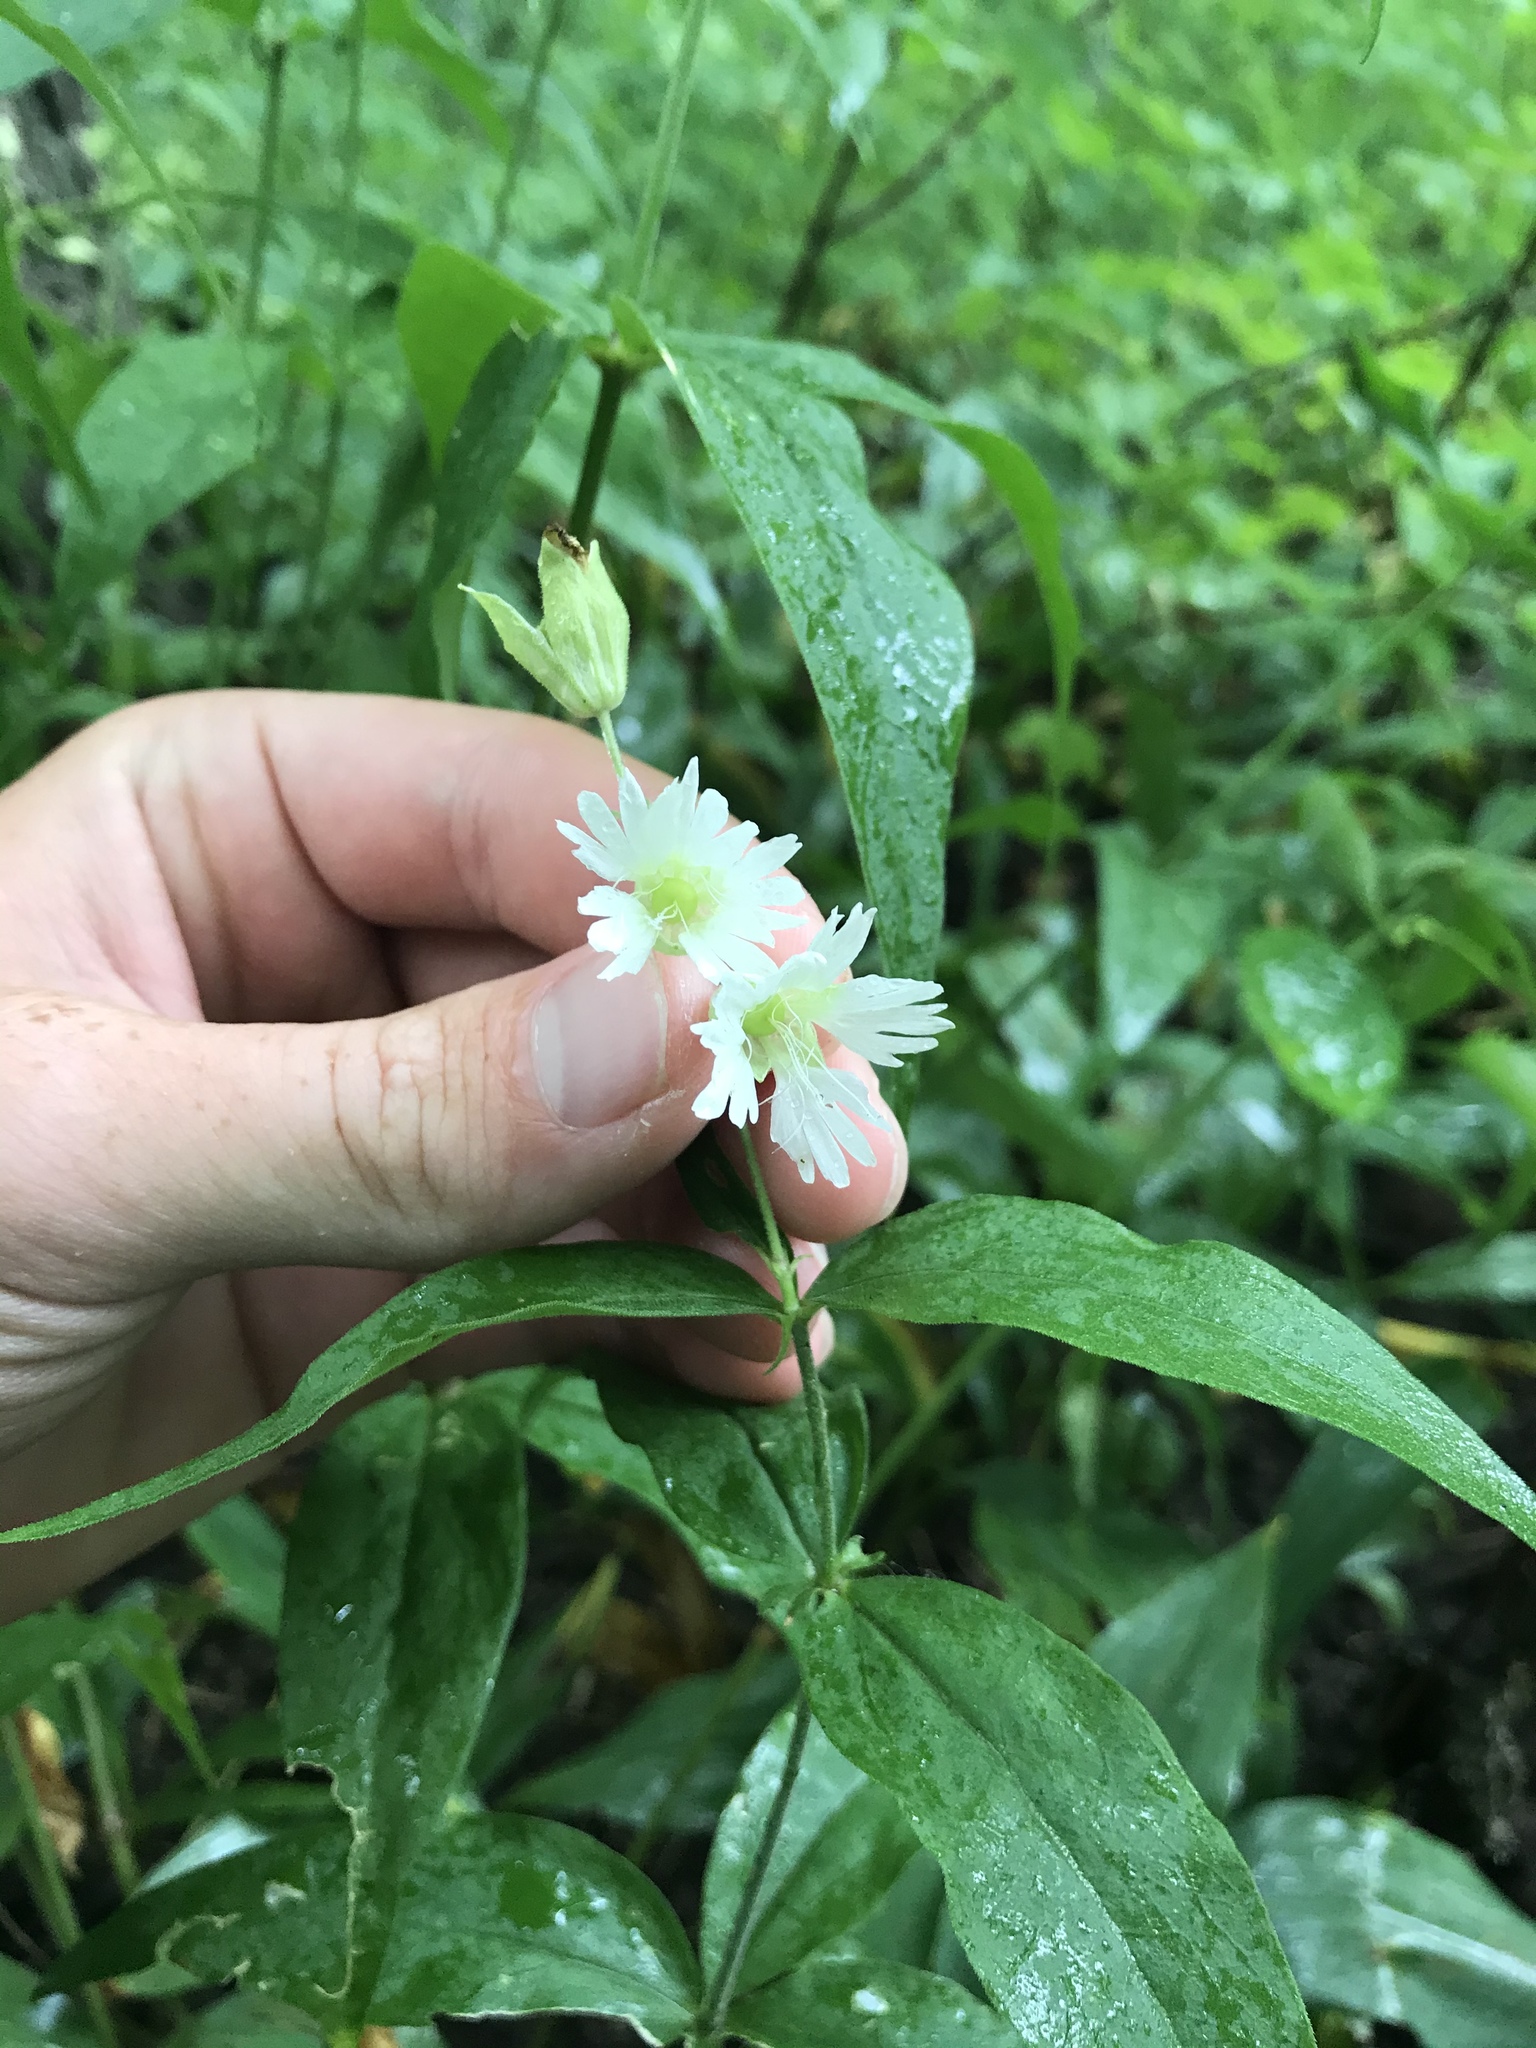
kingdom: Plantae
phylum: Tracheophyta
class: Magnoliopsida
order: Caryophyllales
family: Caryophyllaceae
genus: Silene
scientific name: Silene stellata
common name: Starry campion
